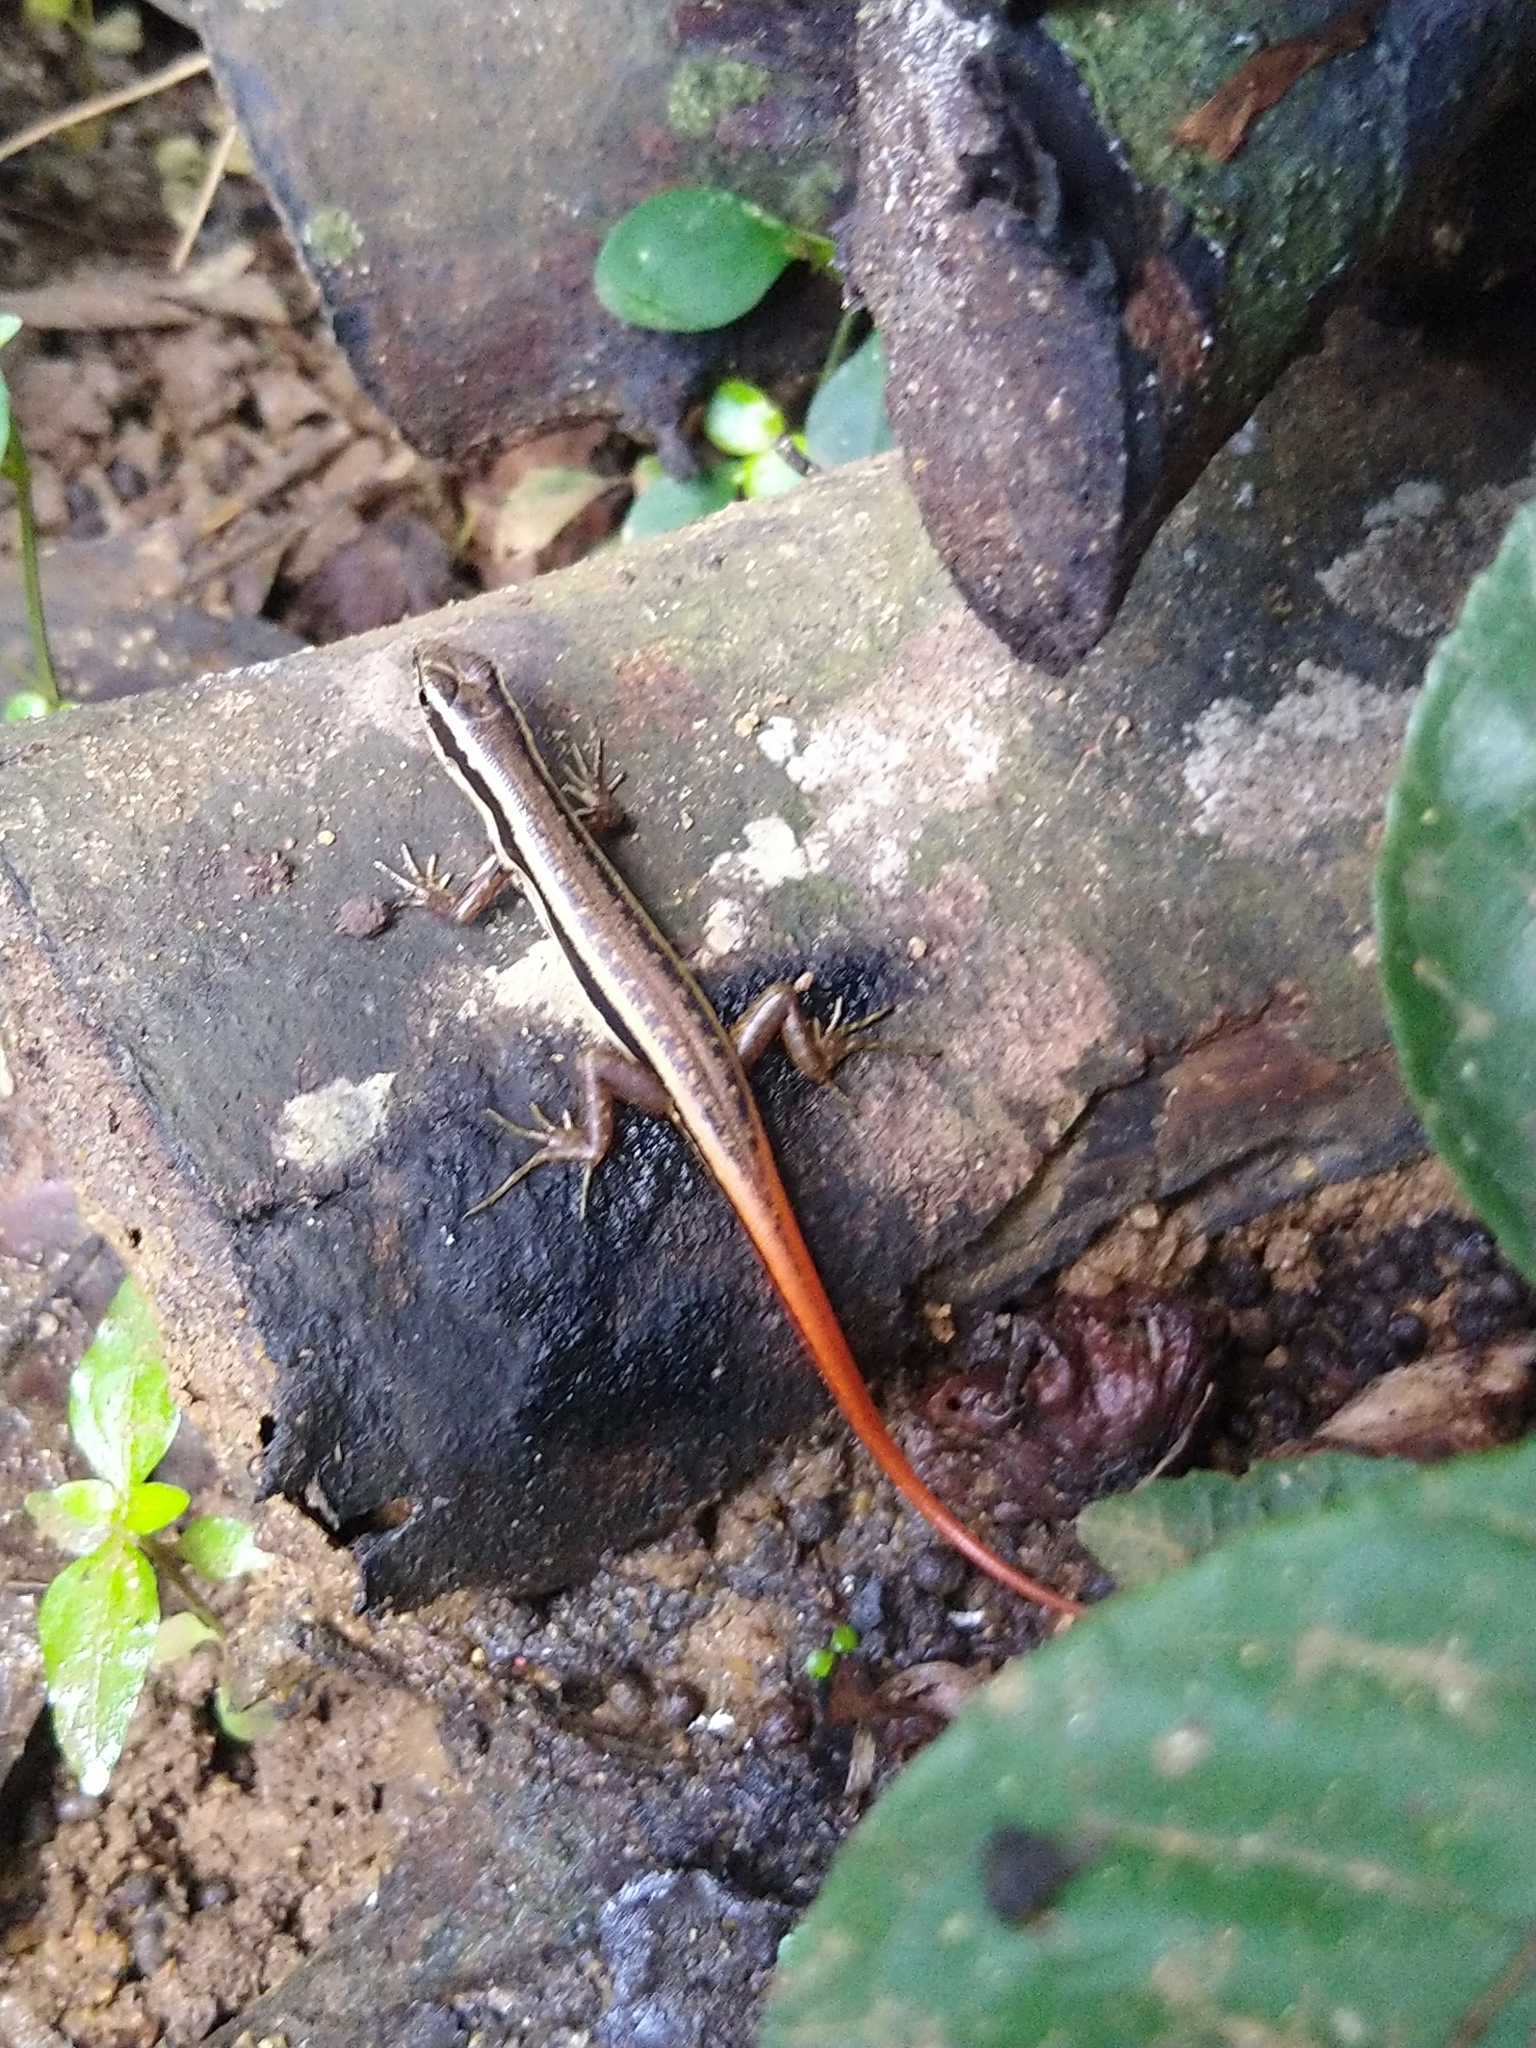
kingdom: Animalia
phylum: Chordata
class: Squamata
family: Scincidae
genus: Sphenomorphus
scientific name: Sphenomorphus dussumieri
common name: Dussumier's forest skink
